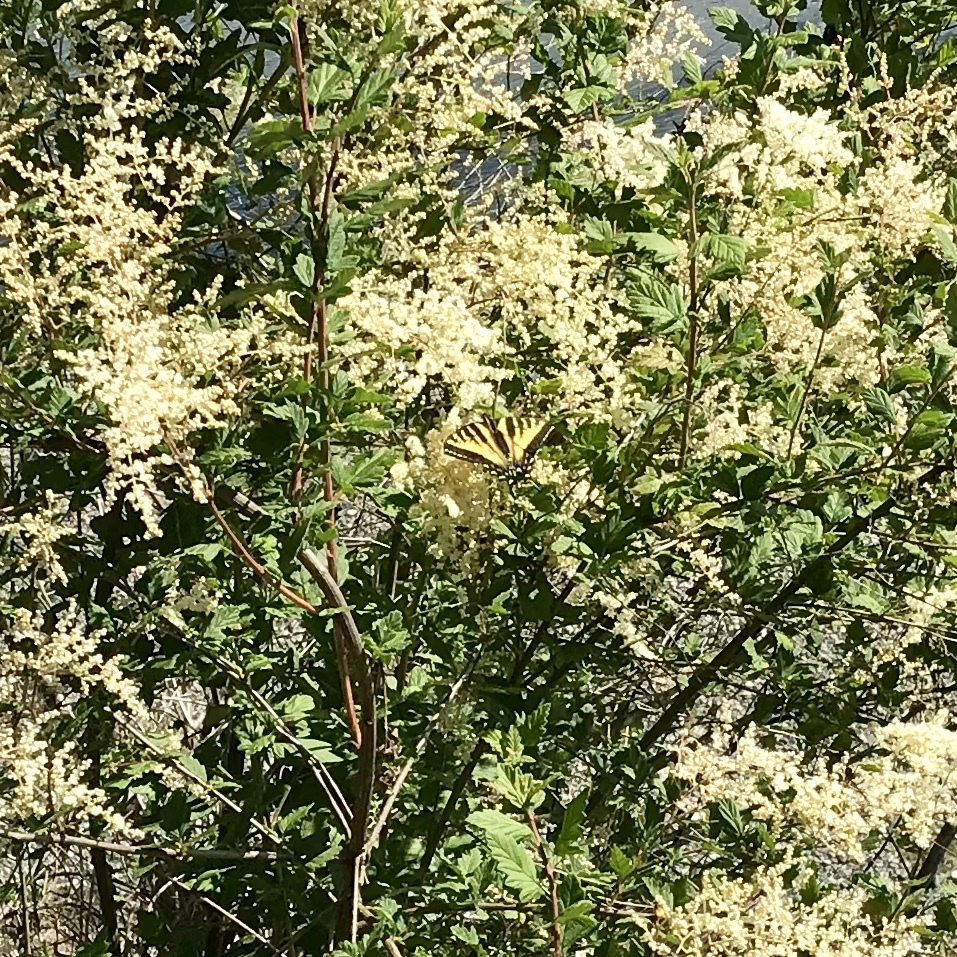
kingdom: Animalia
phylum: Arthropoda
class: Insecta
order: Lepidoptera
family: Papilionidae
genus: Papilio
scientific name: Papilio rutulus
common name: Western tiger swallowtail
